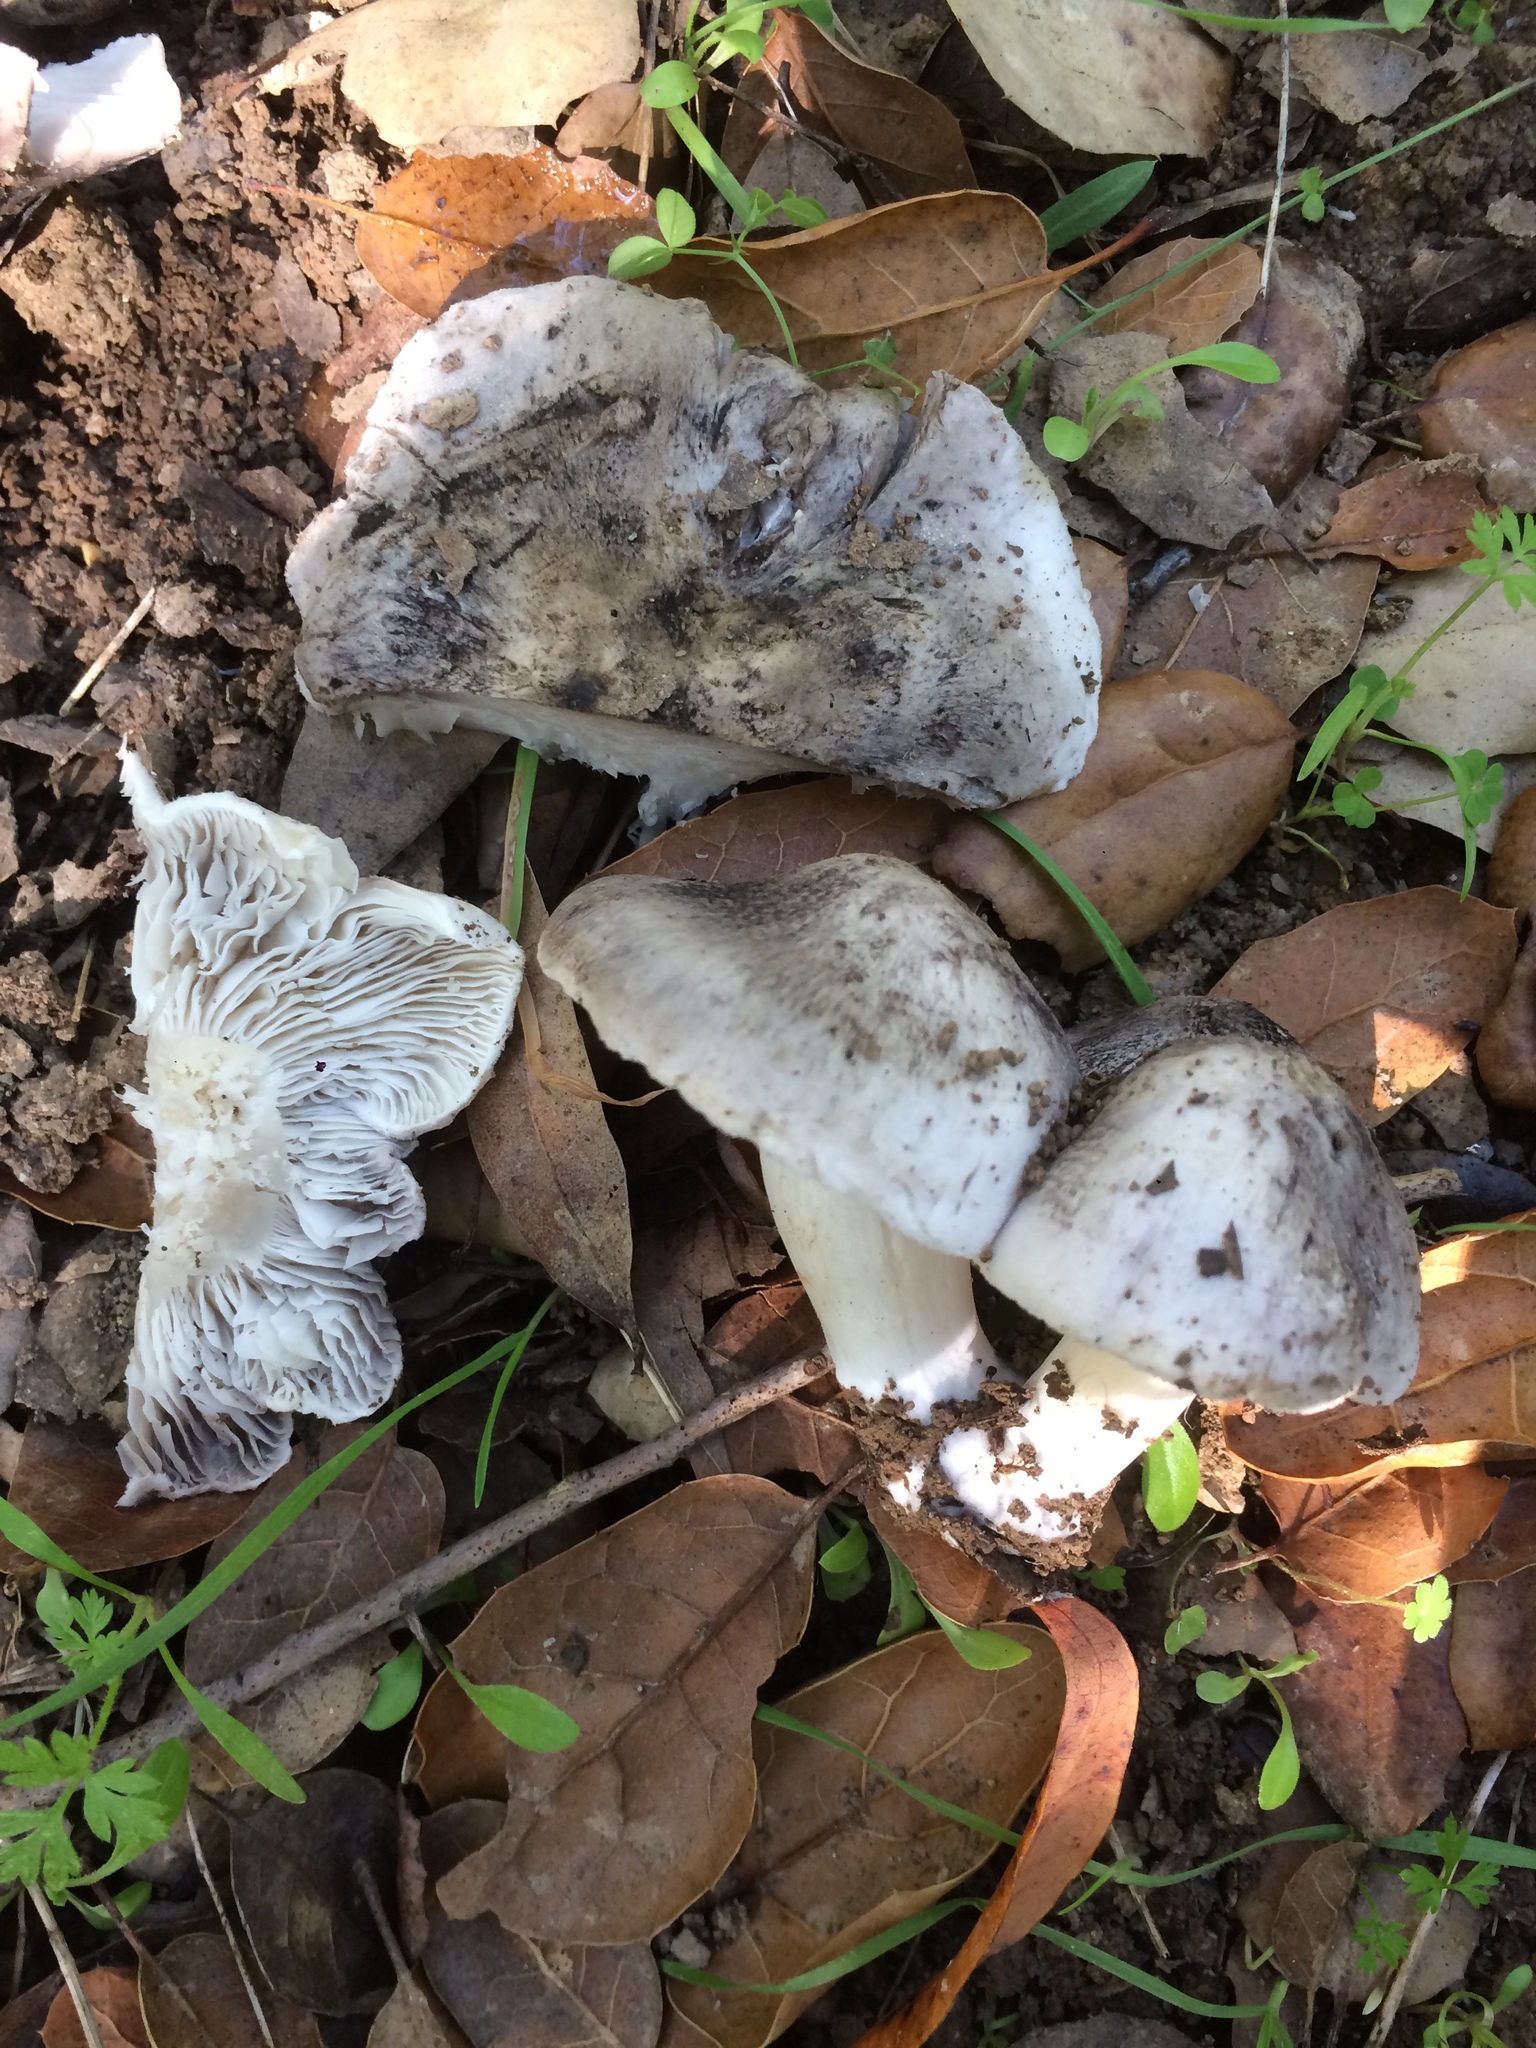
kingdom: Fungi
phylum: Basidiomycota
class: Agaricomycetes
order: Agaricales
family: Tricholomataceae
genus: Tricholoma
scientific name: Tricholoma terreum
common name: Grey knight
